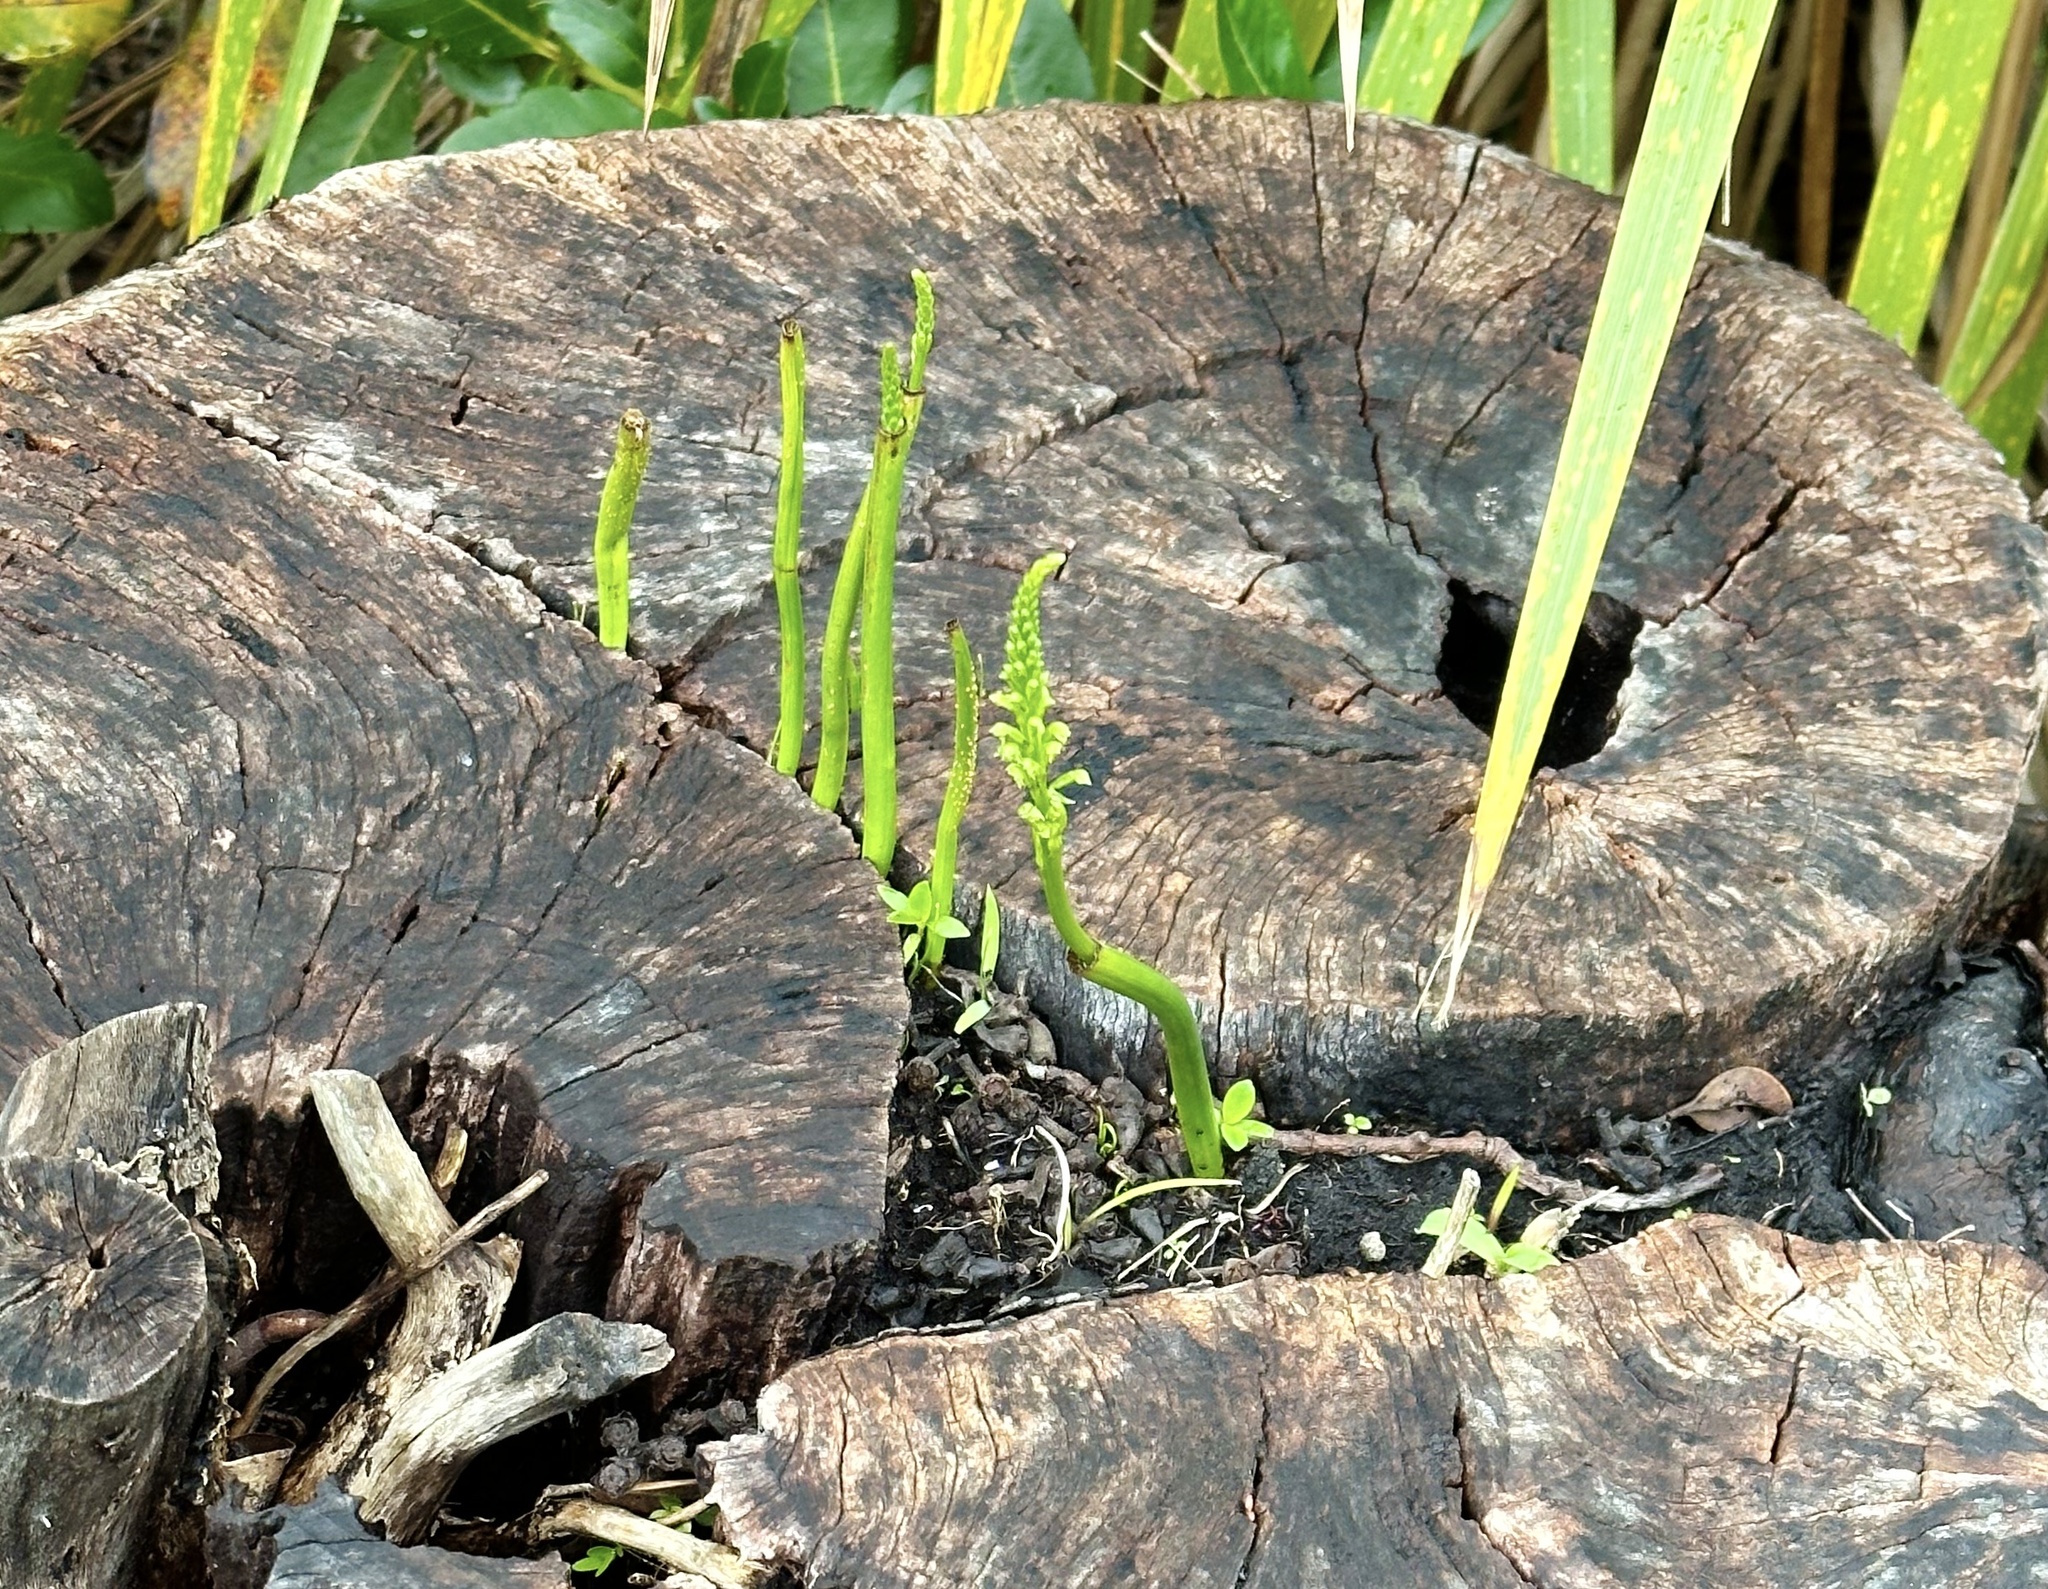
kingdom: Plantae
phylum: Tracheophyta
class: Liliopsida
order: Asparagales
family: Orchidaceae
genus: Microtis
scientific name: Microtis unifolia
